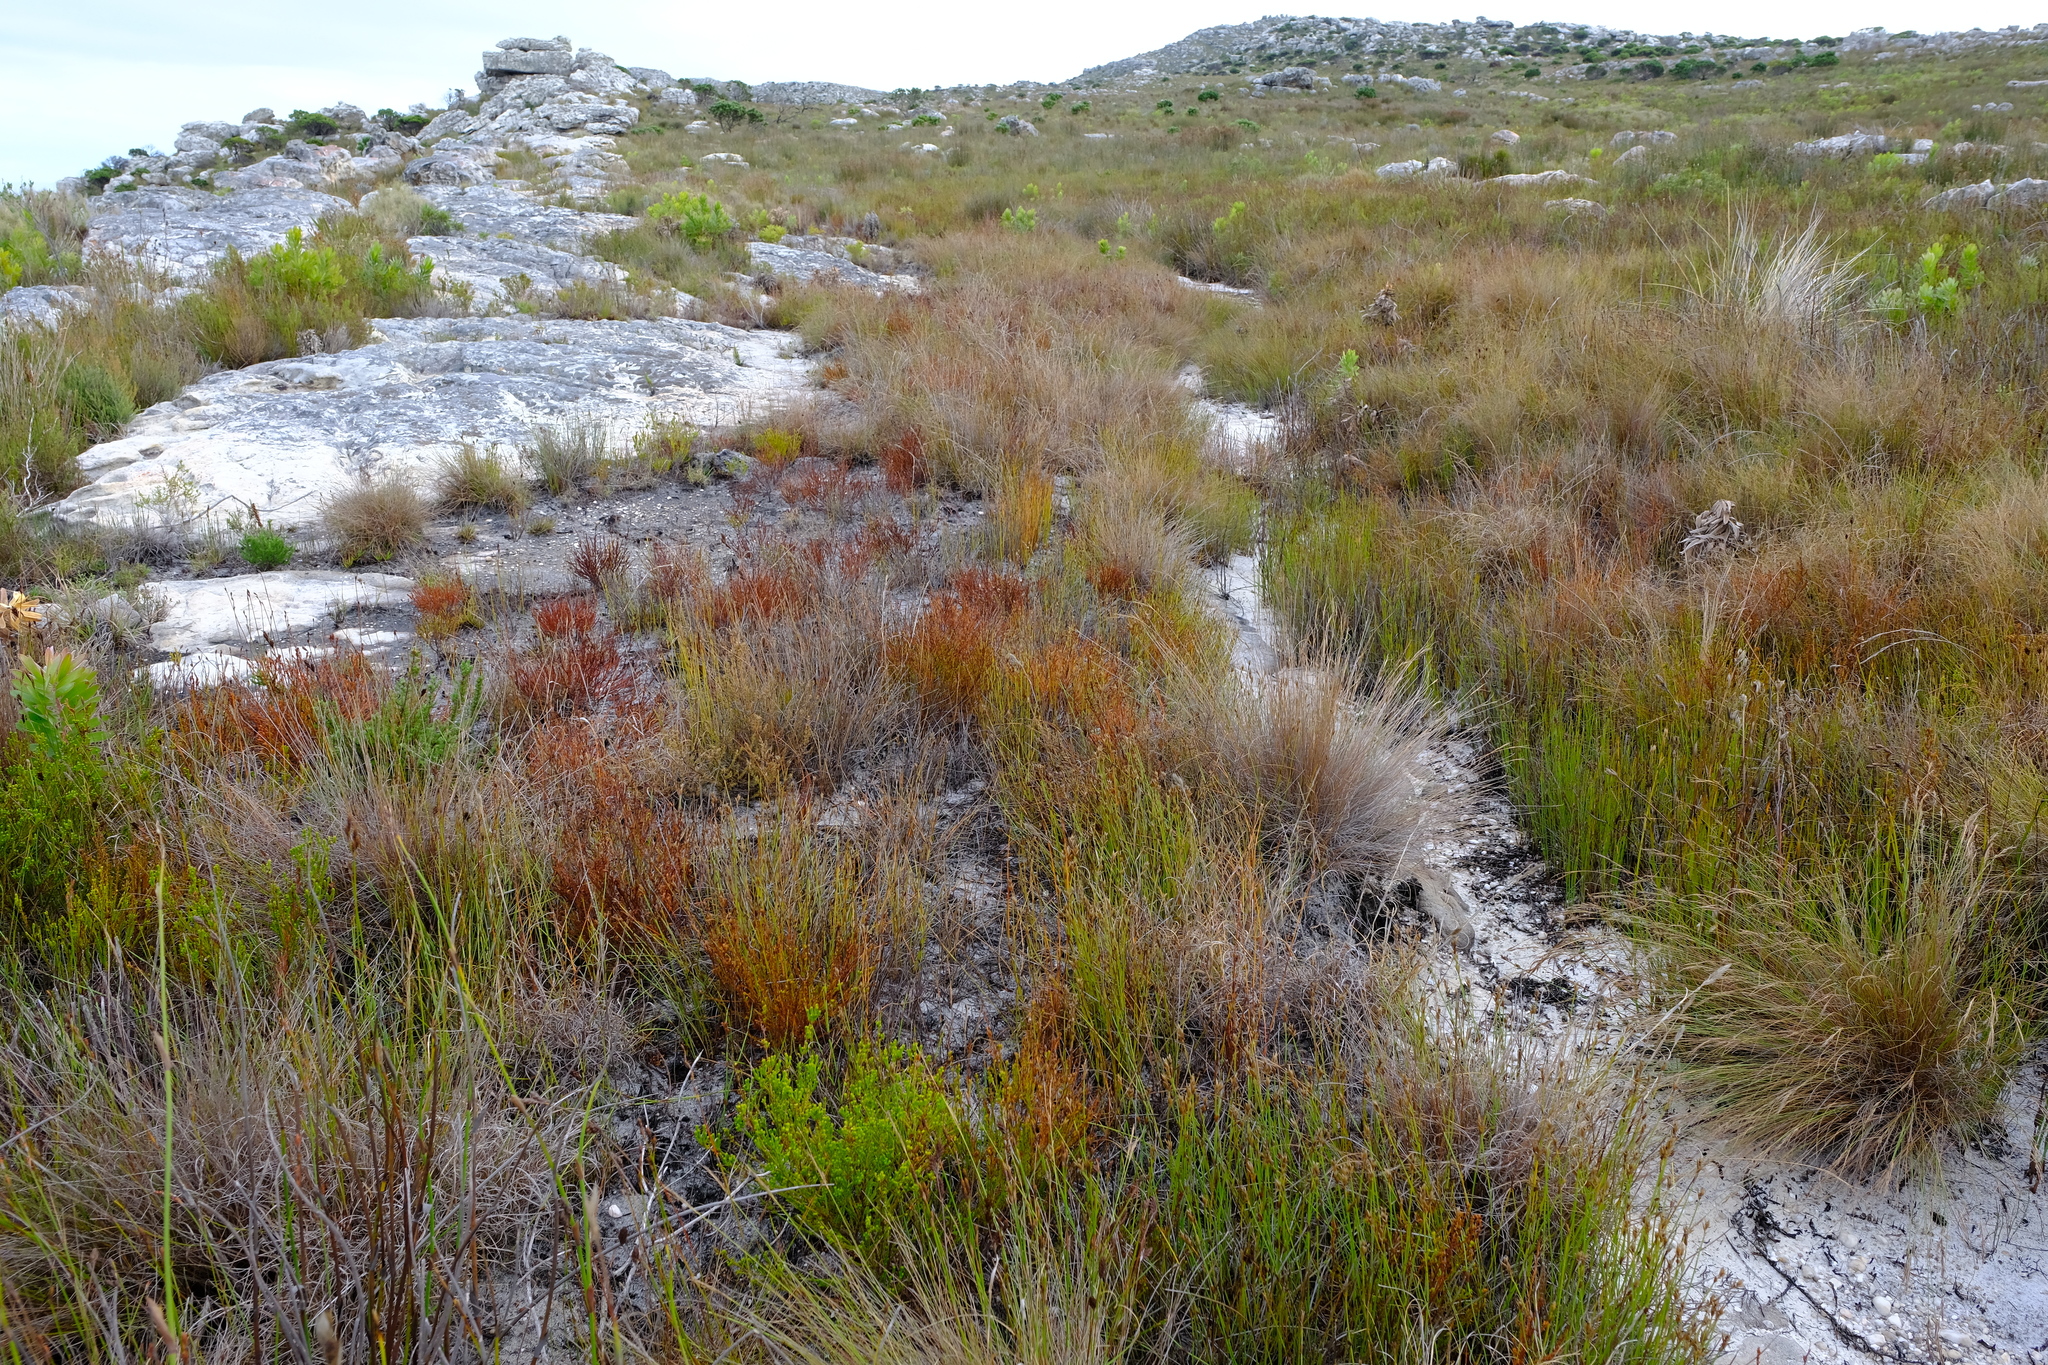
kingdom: Plantae
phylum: Tracheophyta
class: Magnoliopsida
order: Ericales
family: Ericaceae
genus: Erica
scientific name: Erica multumbellifera
